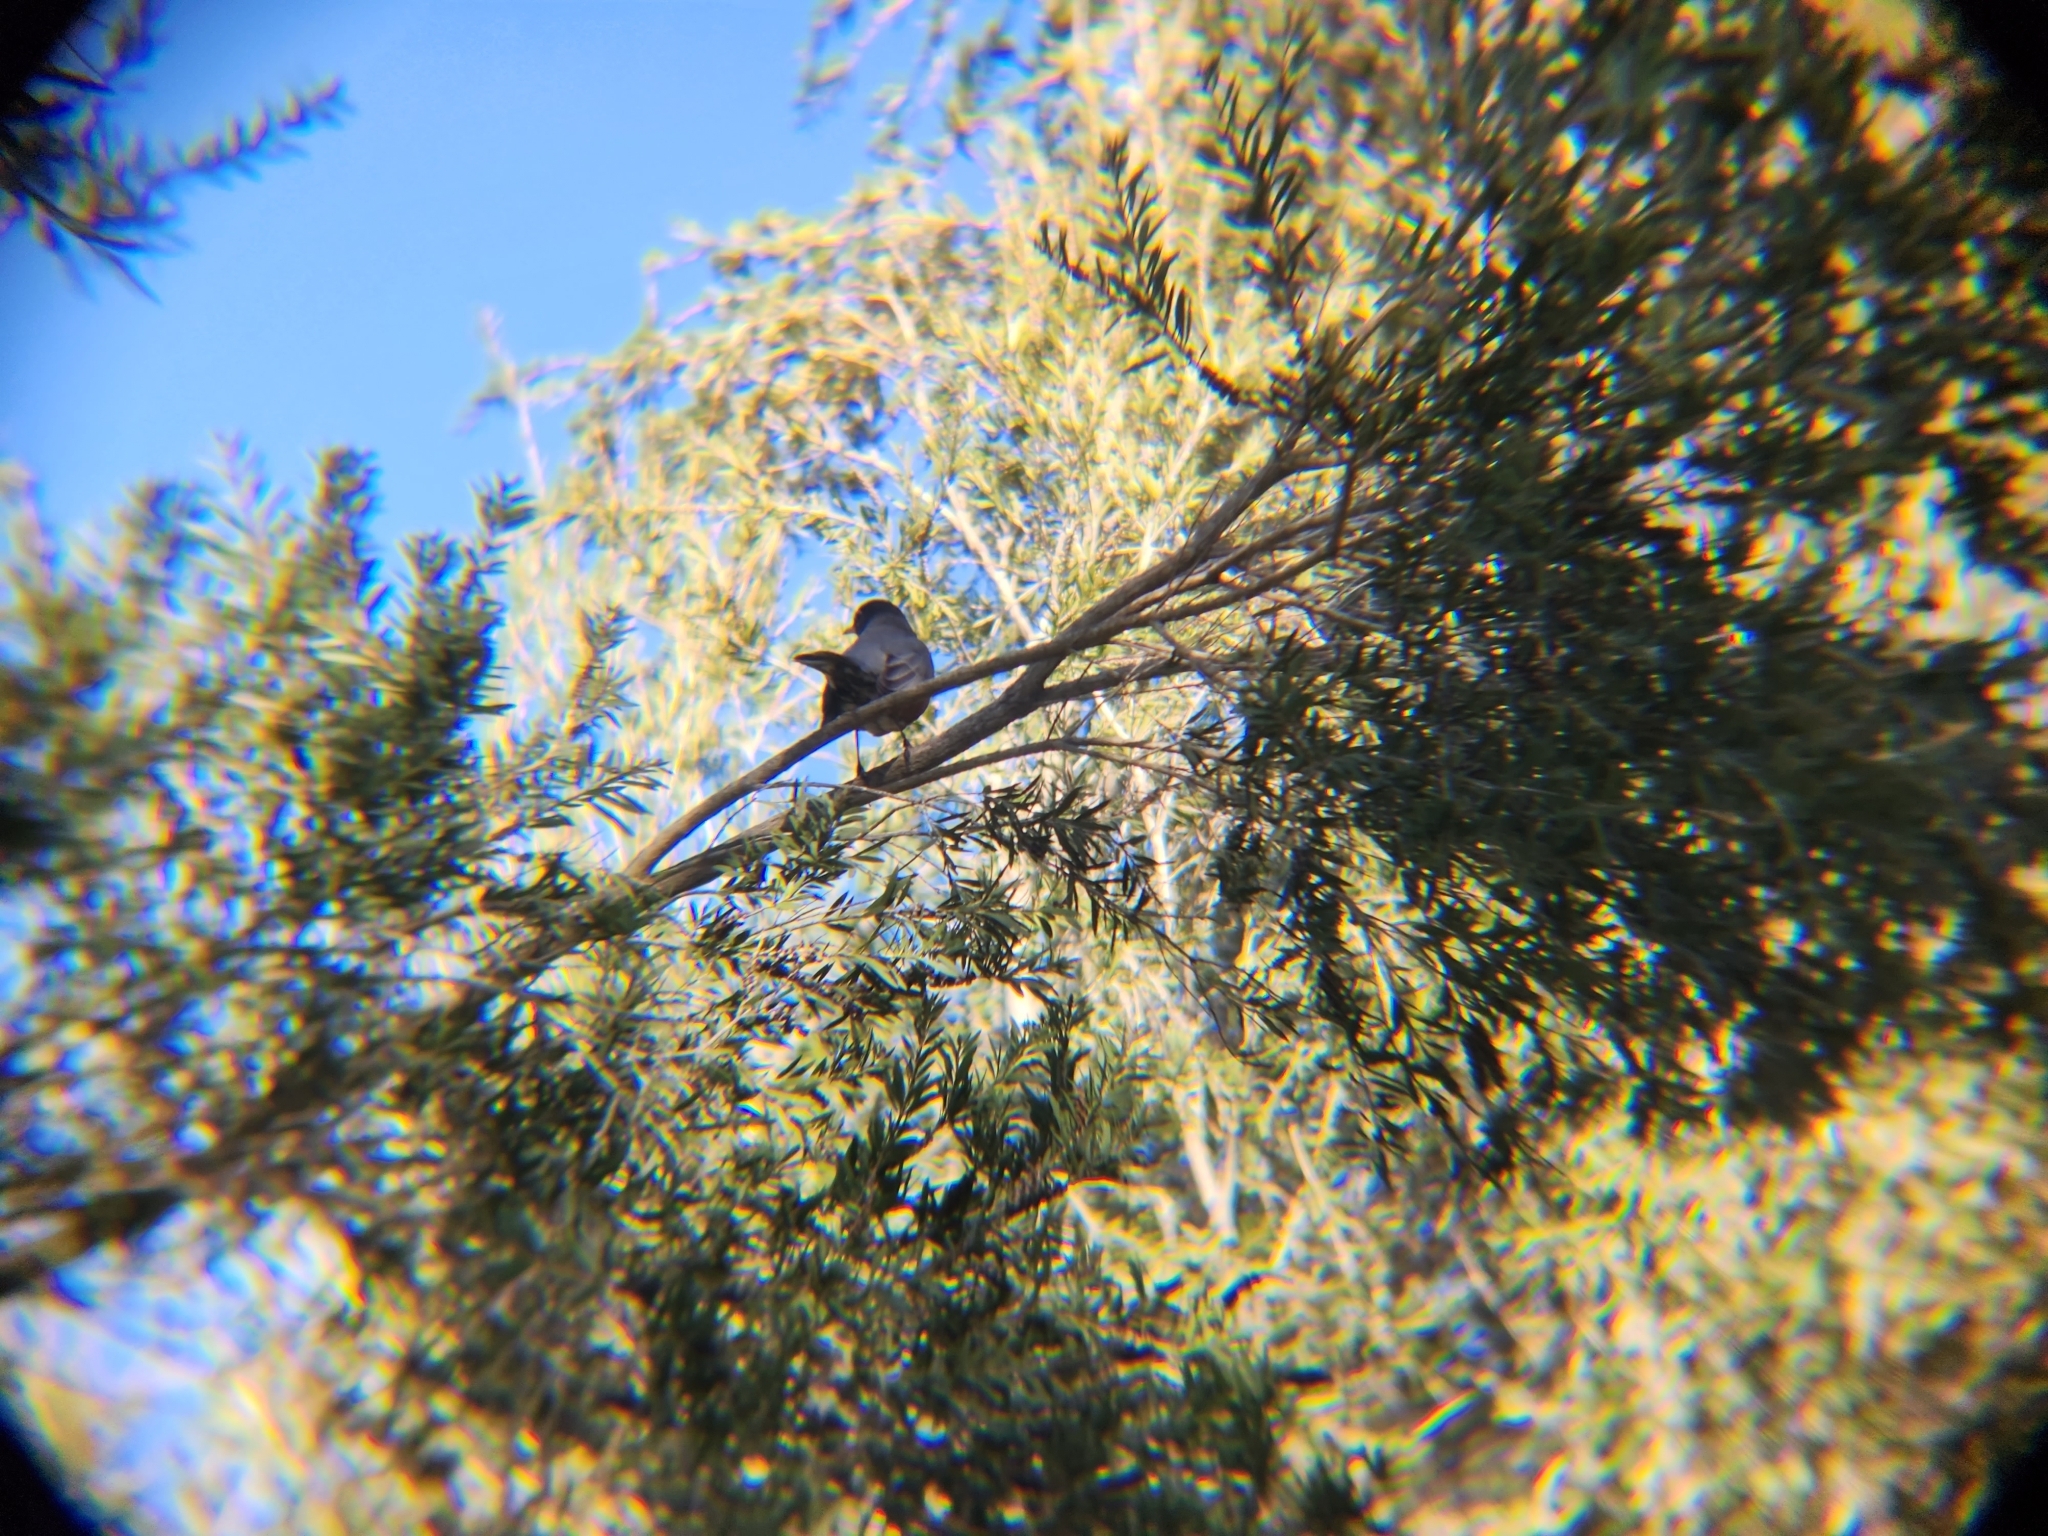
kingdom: Animalia
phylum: Chordata
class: Aves
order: Passeriformes
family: Turdidae
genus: Turdus
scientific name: Turdus migratorius
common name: American robin
